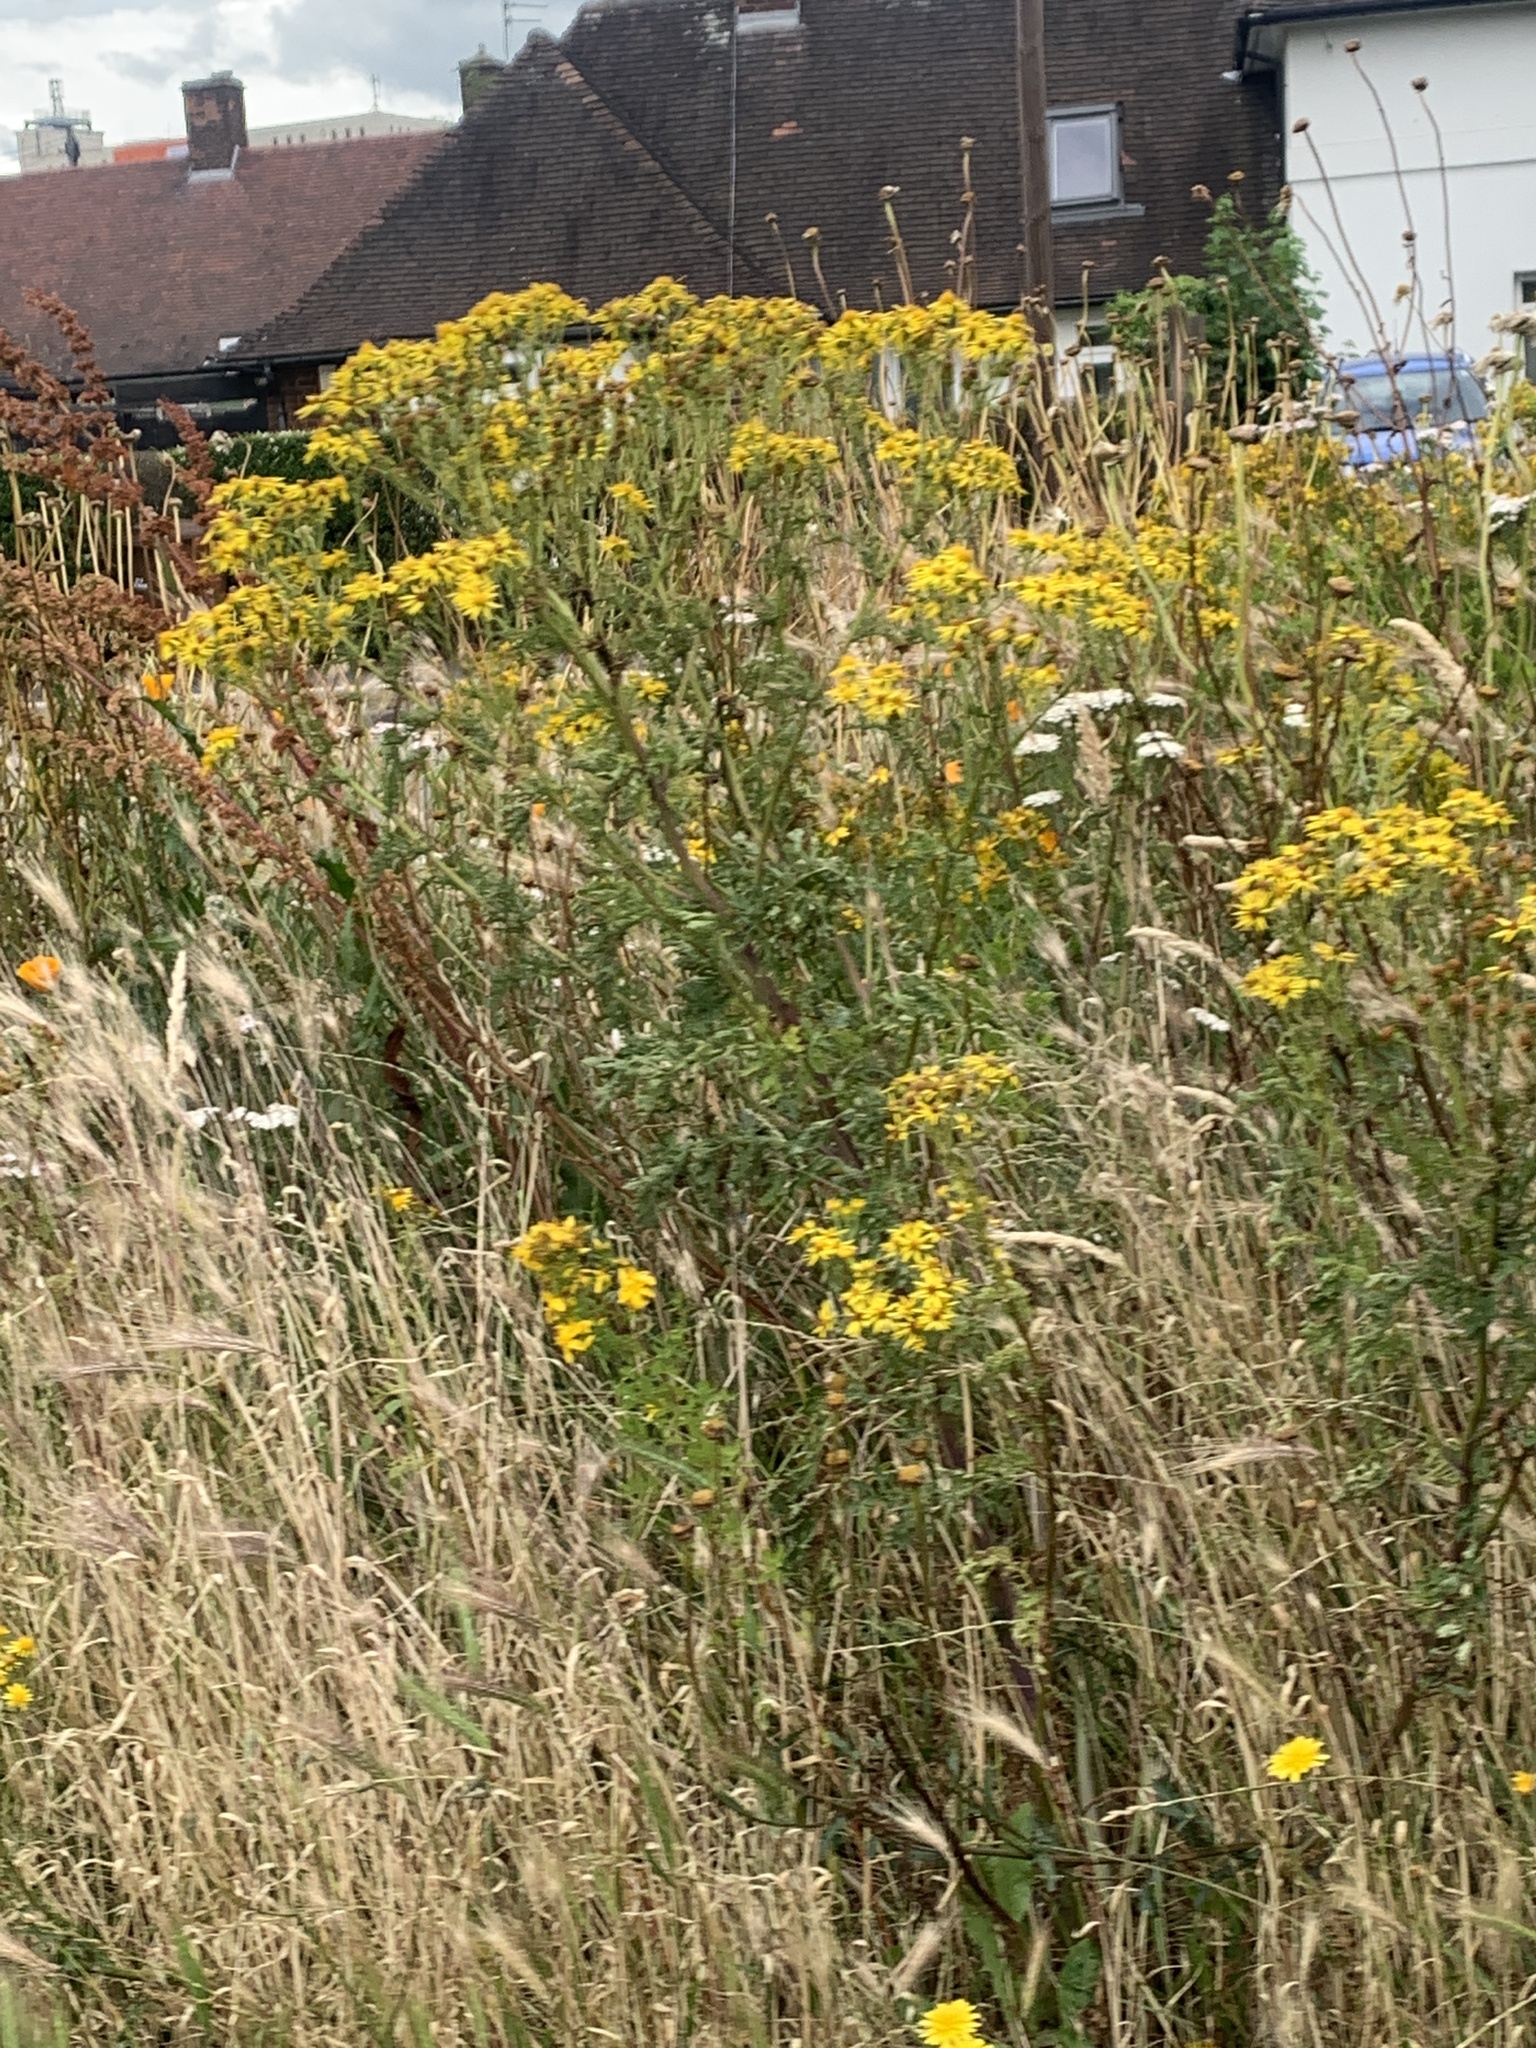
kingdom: Plantae
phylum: Tracheophyta
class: Magnoliopsida
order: Asterales
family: Asteraceae
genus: Jacobaea
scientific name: Jacobaea vulgaris
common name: Stinking willie
